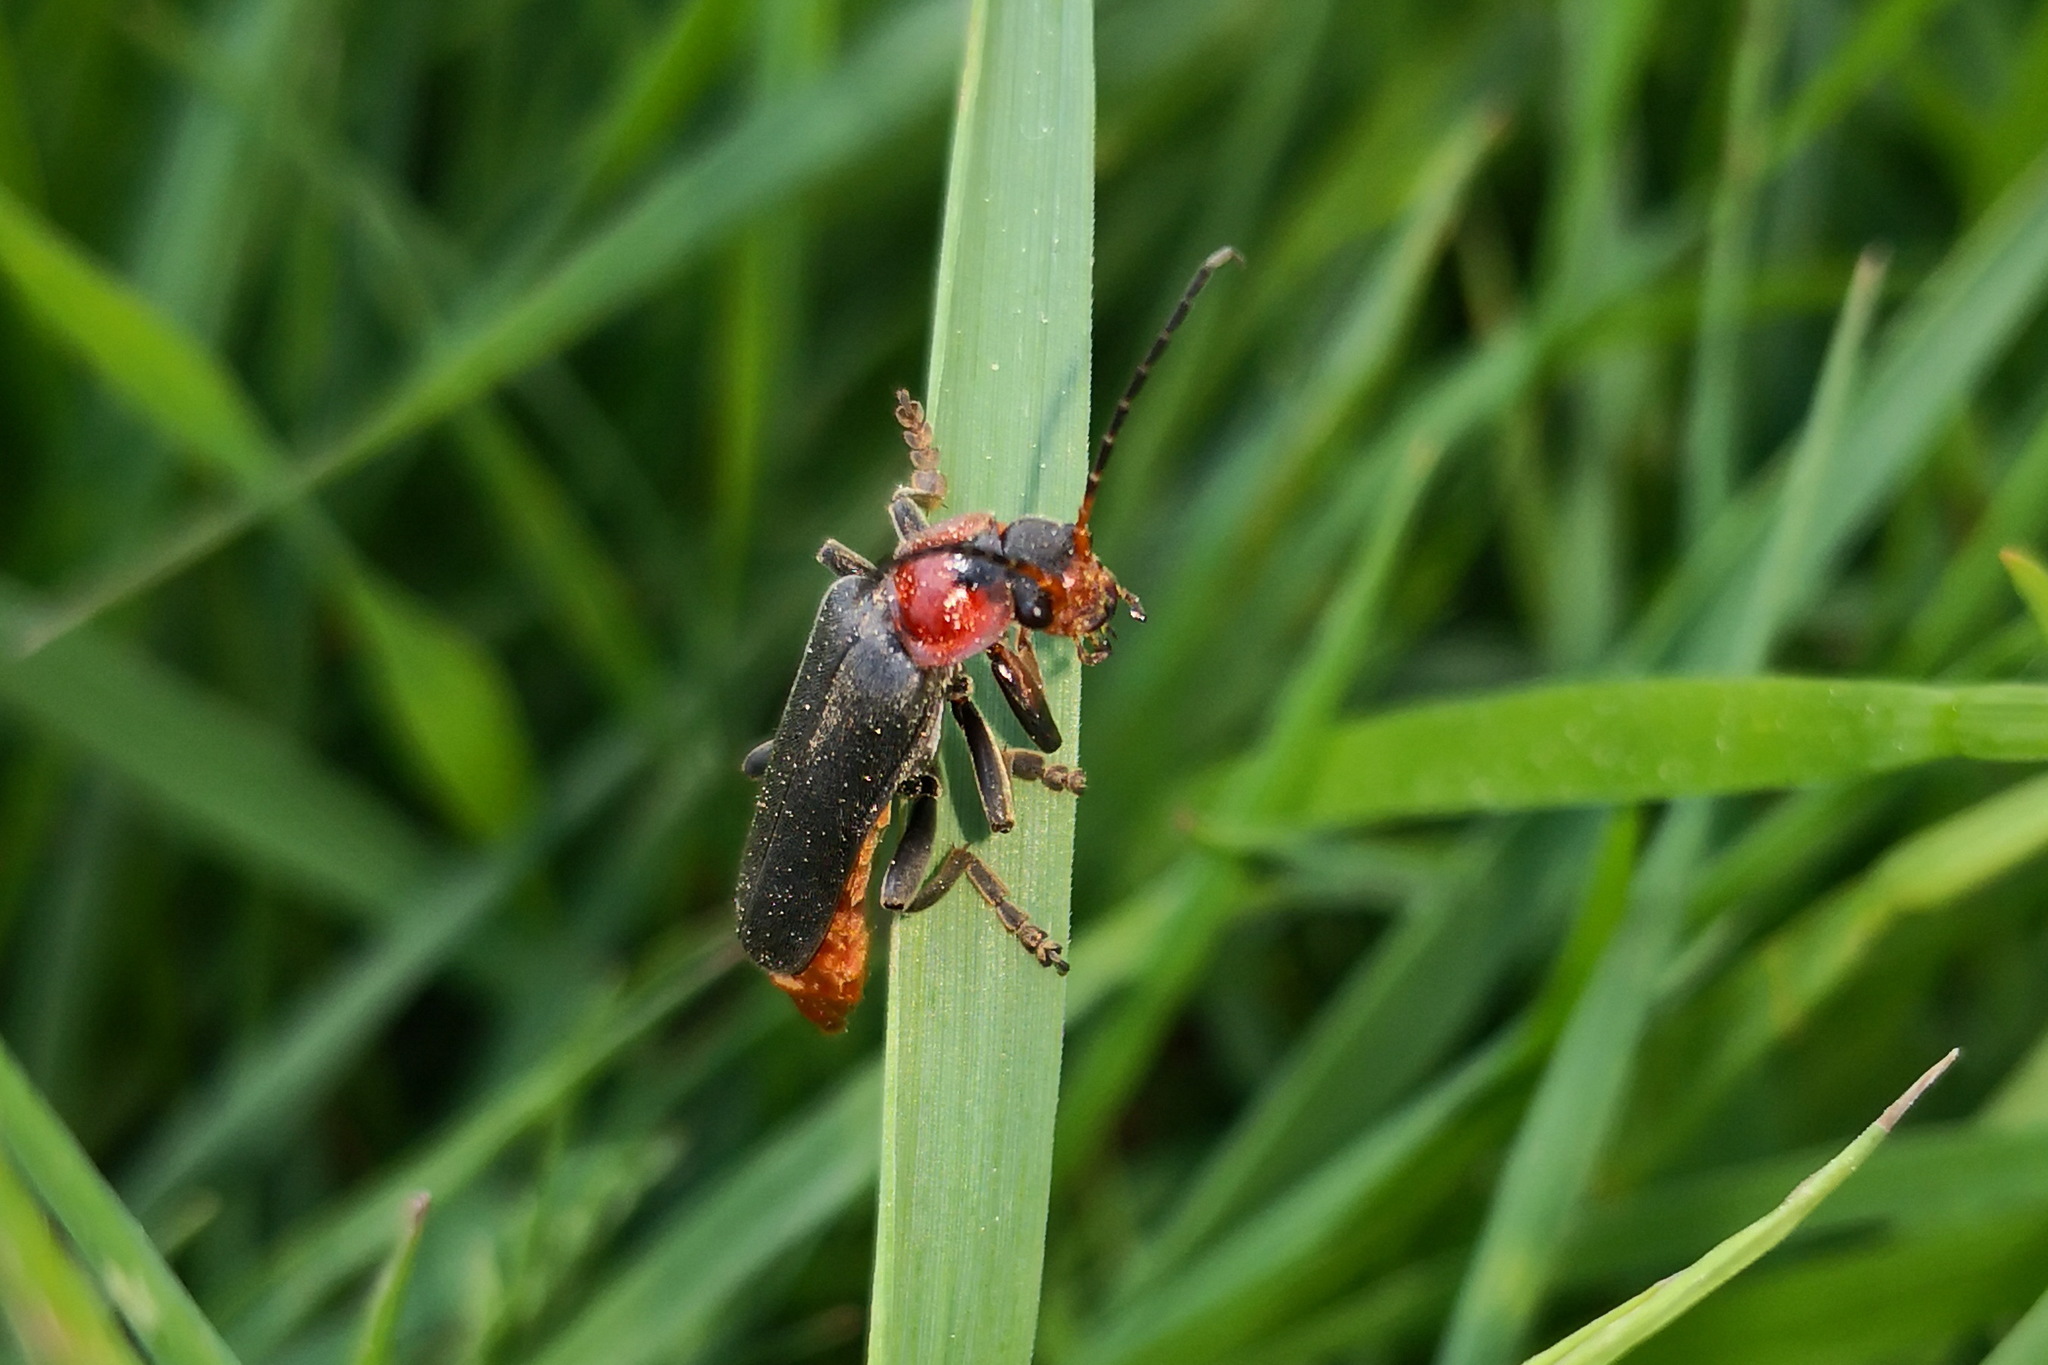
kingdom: Animalia
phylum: Arthropoda
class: Insecta
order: Coleoptera
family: Cantharidae
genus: Cantharis
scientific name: Cantharis fusca
